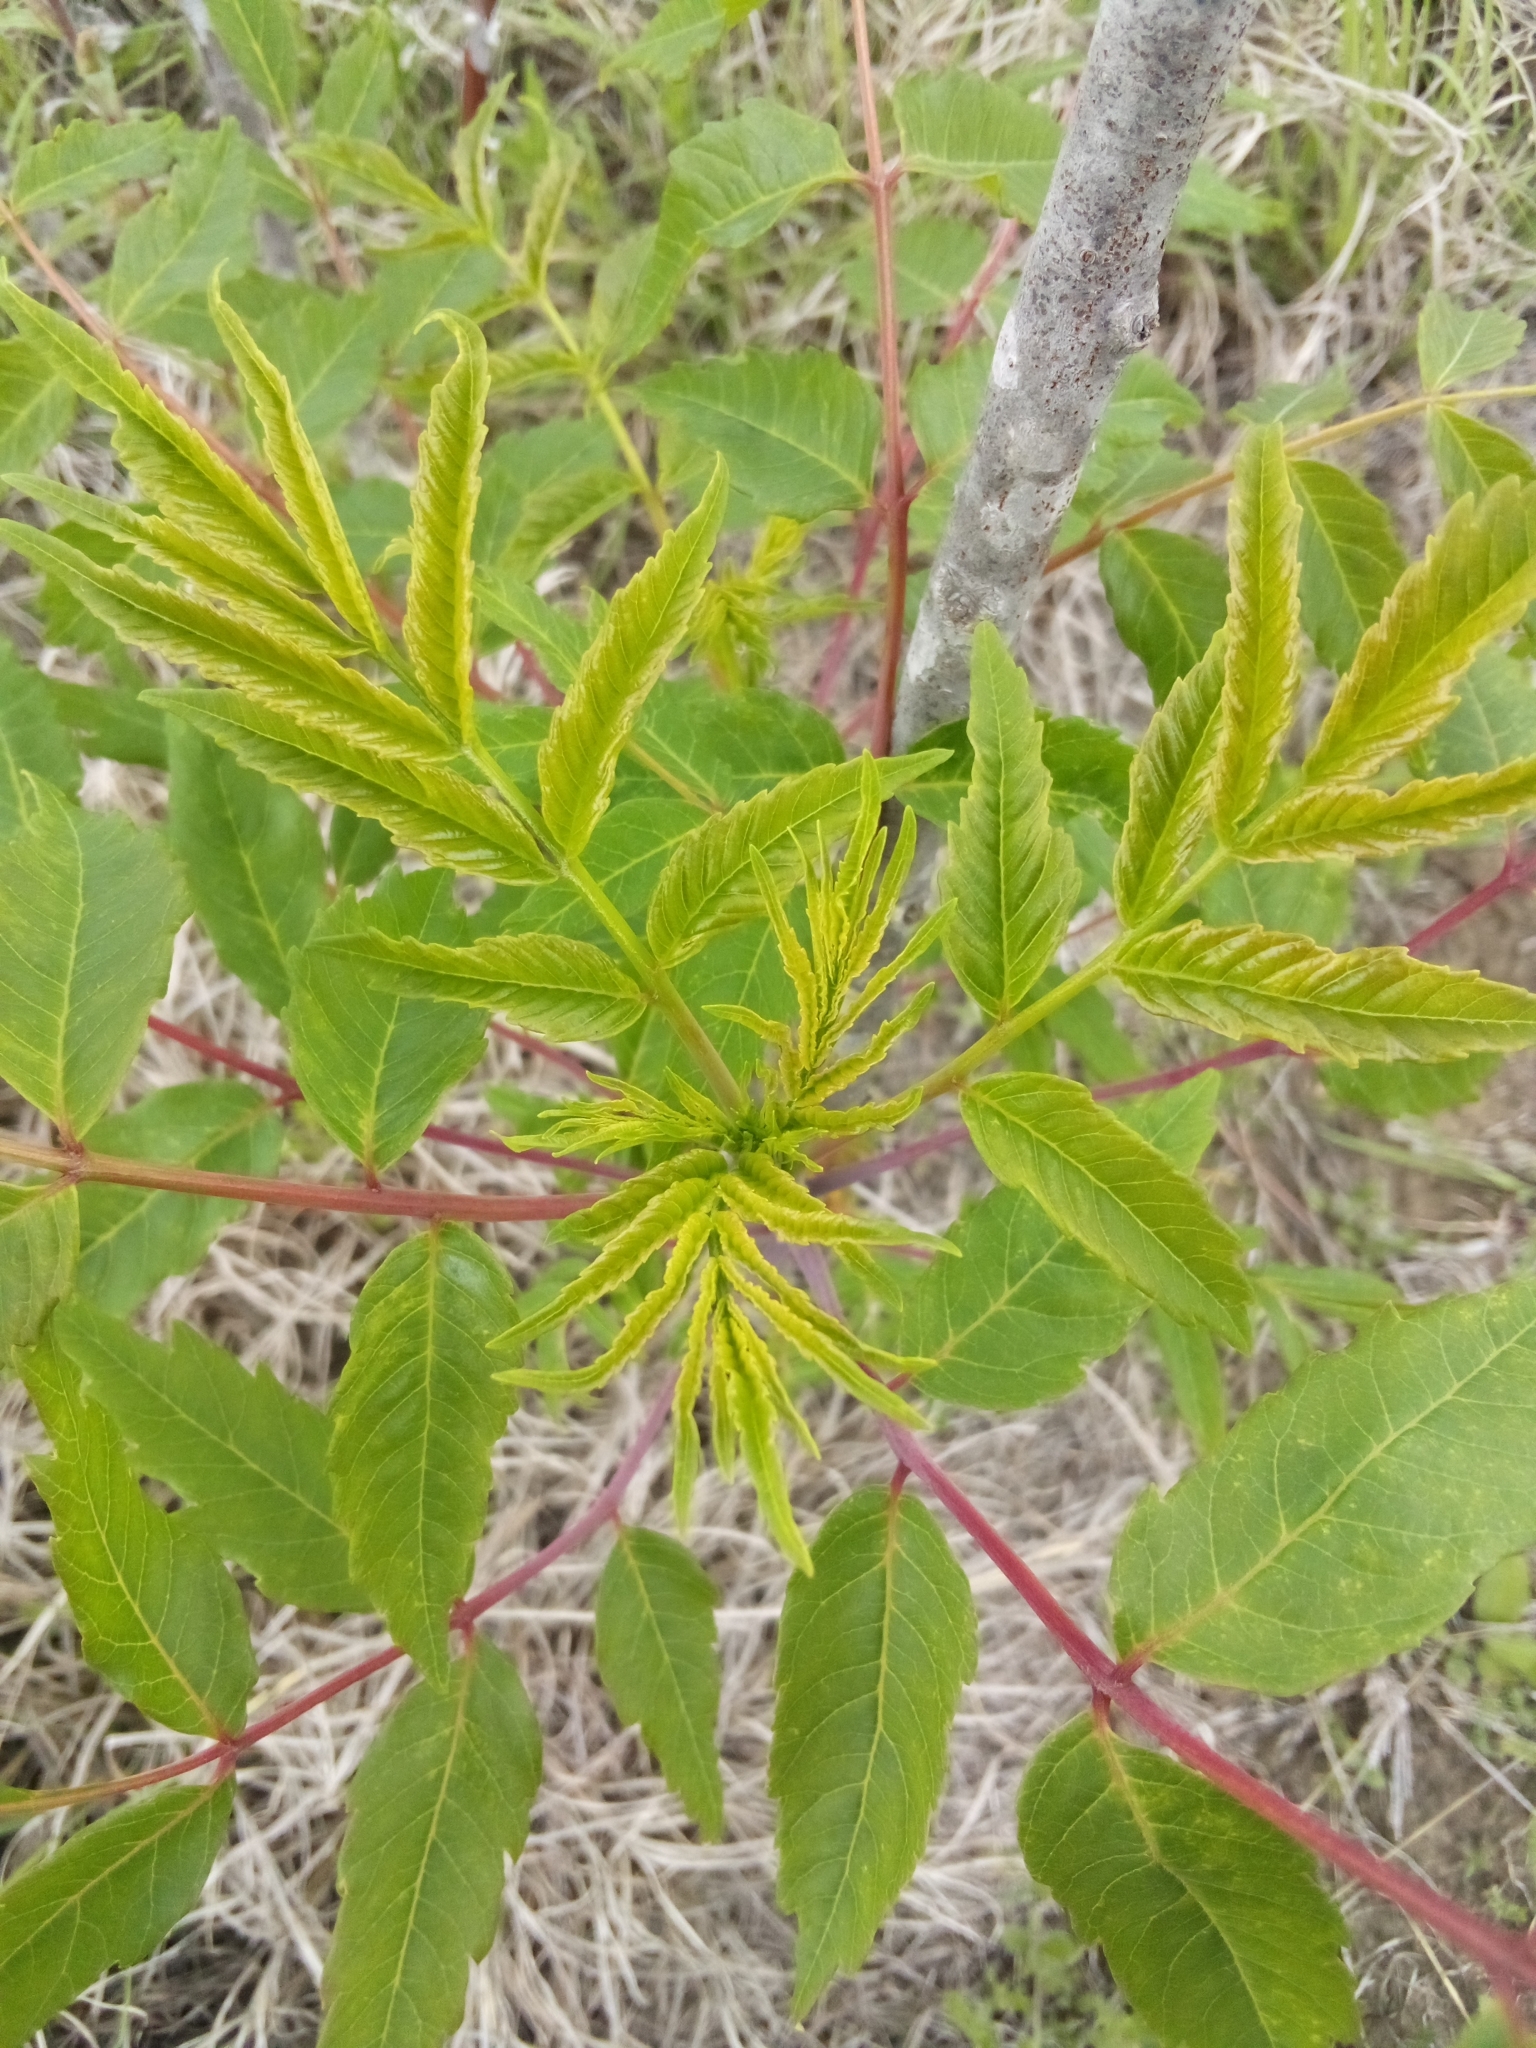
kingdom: Plantae
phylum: Tracheophyta
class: Magnoliopsida
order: Sapindales
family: Anacardiaceae
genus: Rhus
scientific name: Rhus glabra
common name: Scarlet sumac
